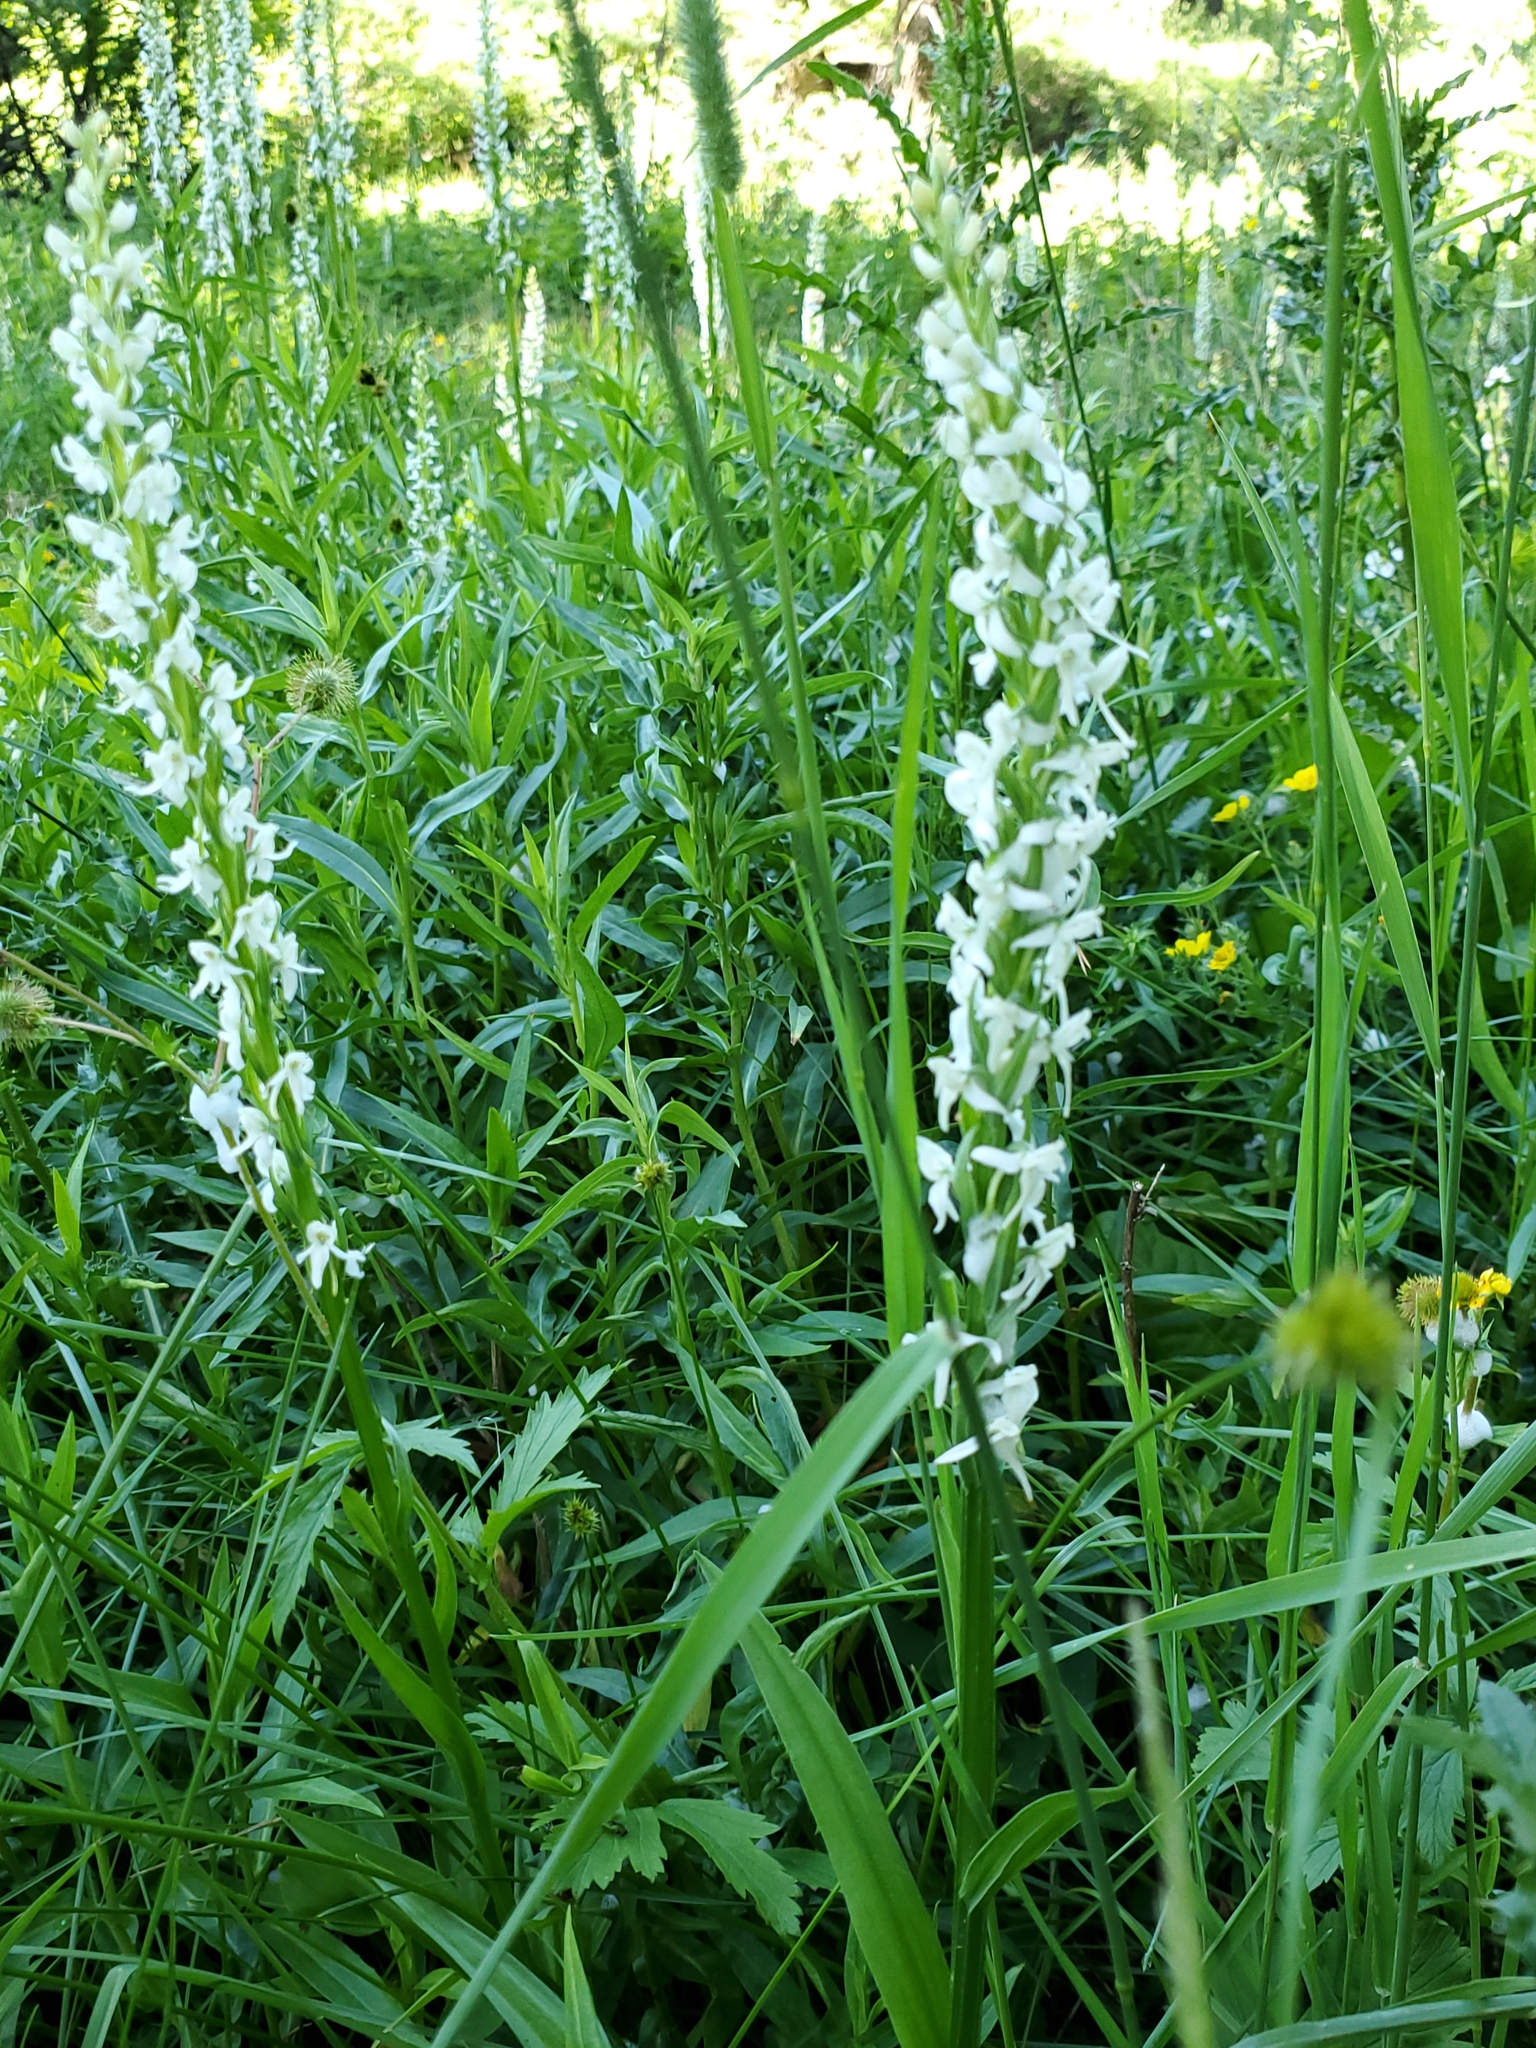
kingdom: Plantae
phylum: Tracheophyta
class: Liliopsida
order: Asparagales
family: Orchidaceae
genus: Platanthera
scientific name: Platanthera dilatata
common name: Bog candles
